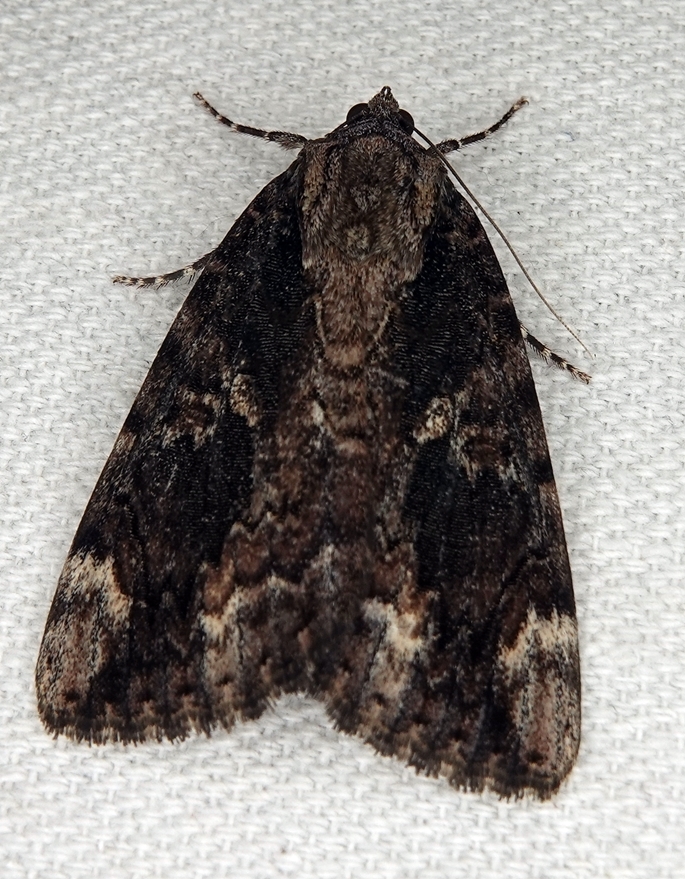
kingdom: Animalia
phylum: Arthropoda
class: Insecta
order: Lepidoptera
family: Erebidae
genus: Catocala
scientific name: Catocala innubens
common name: Betrothed underwing
